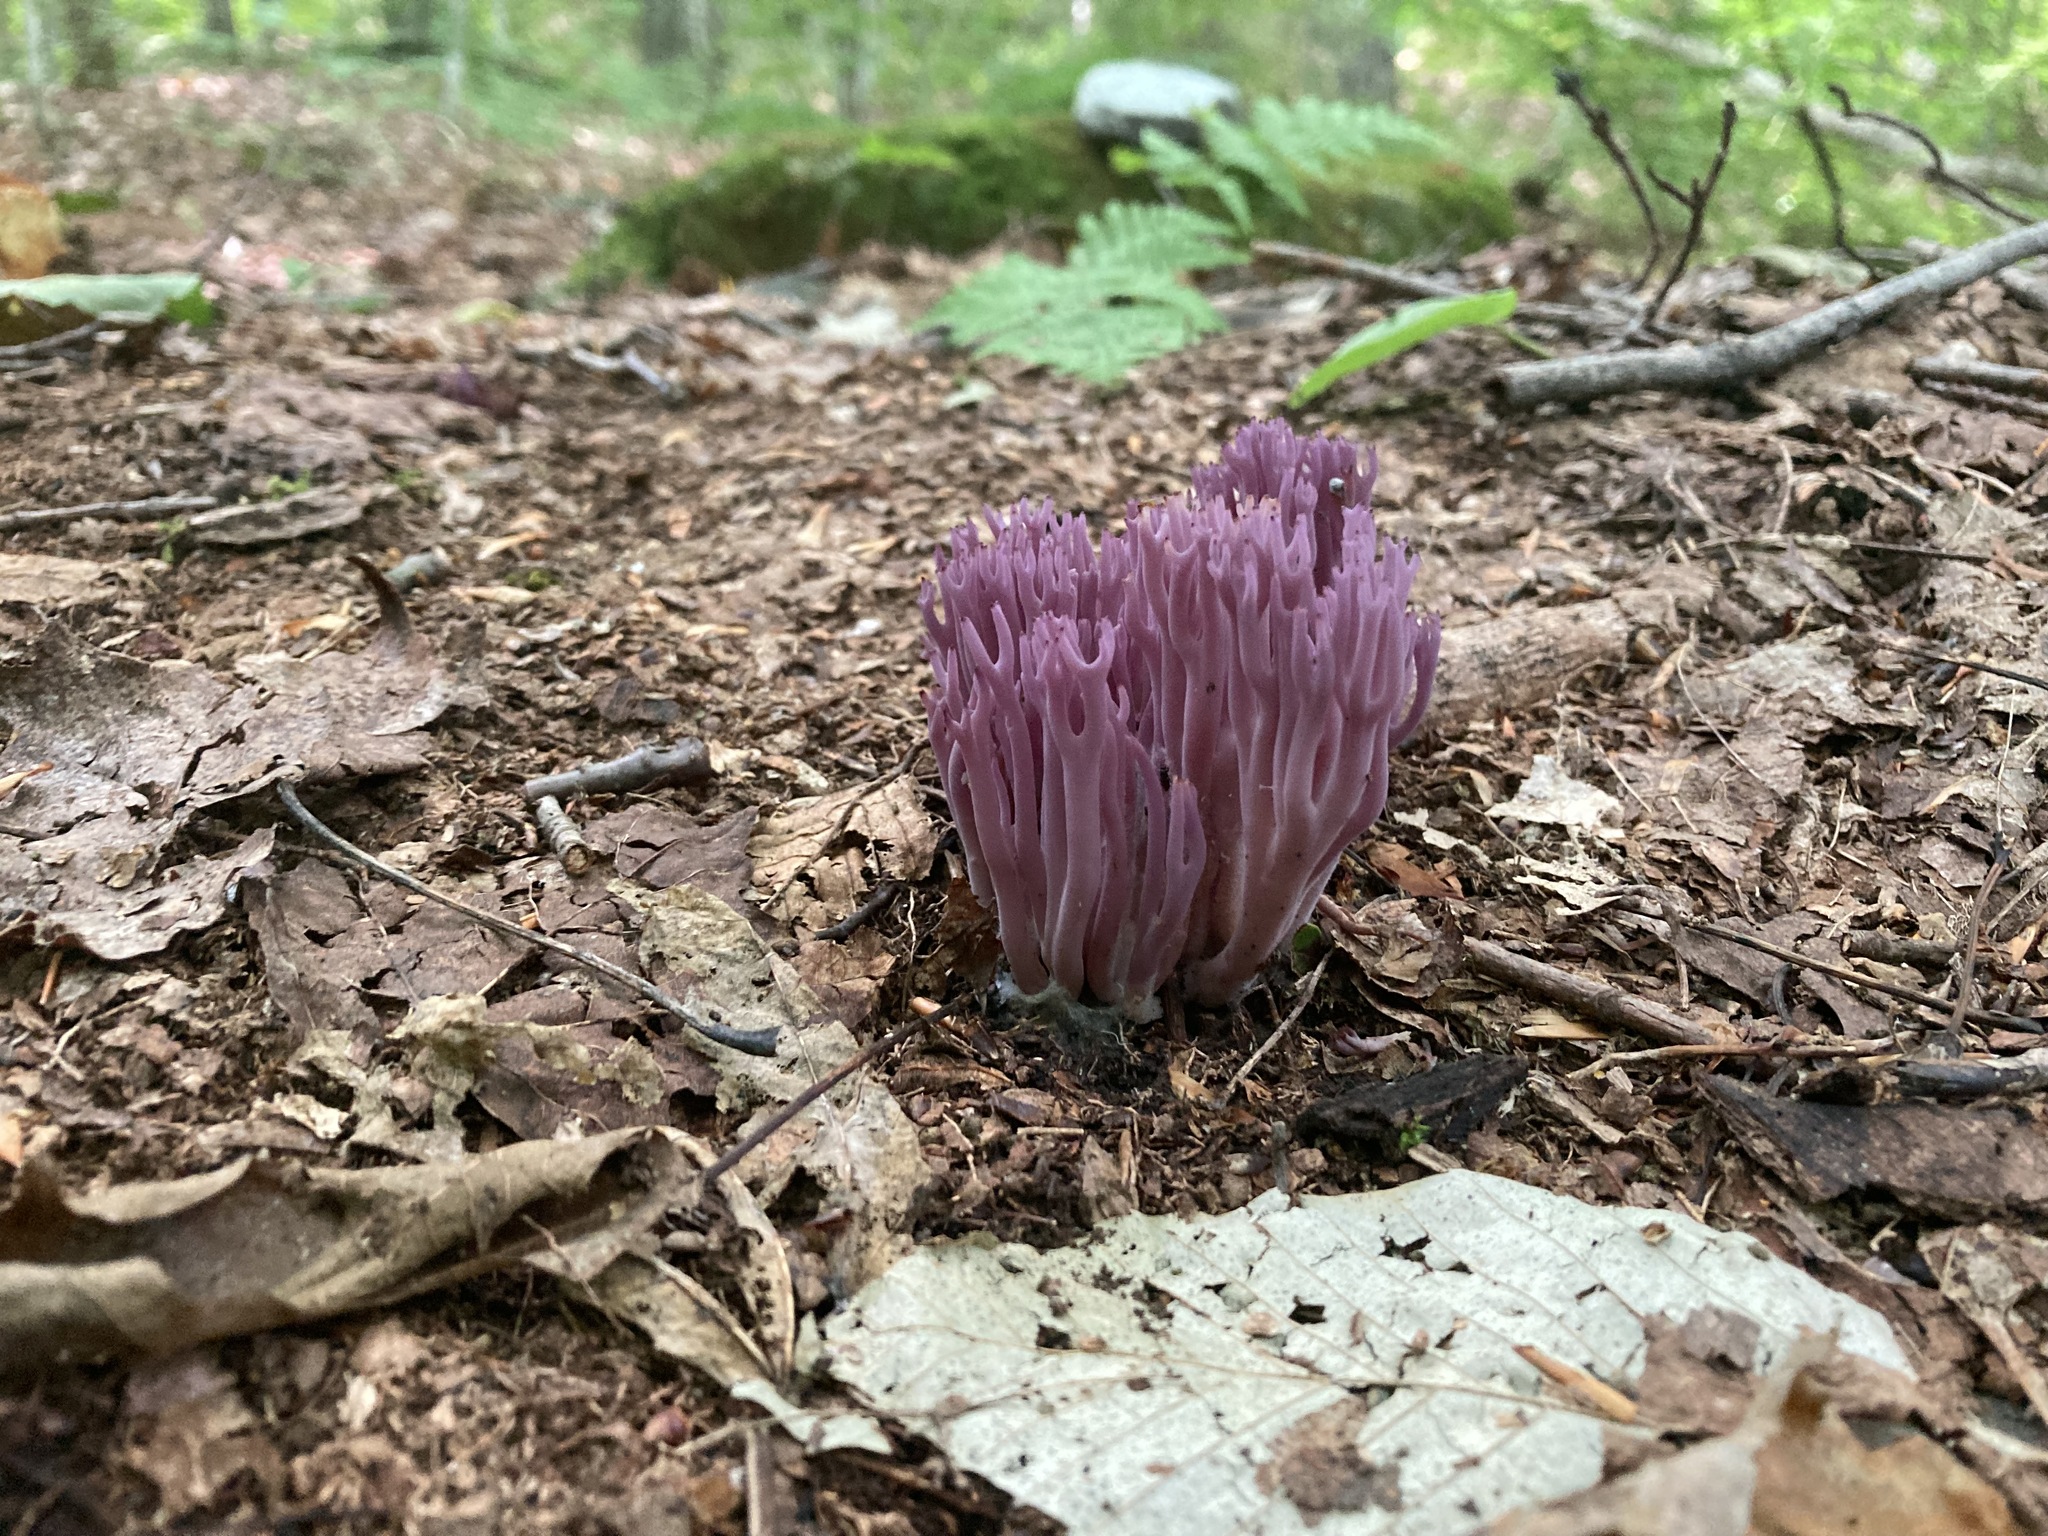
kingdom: Fungi
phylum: Basidiomycota
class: Agaricomycetes
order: Agaricales
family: Clavariaceae
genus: Clavaria
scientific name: Clavaria zollingeri
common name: Violet coral
